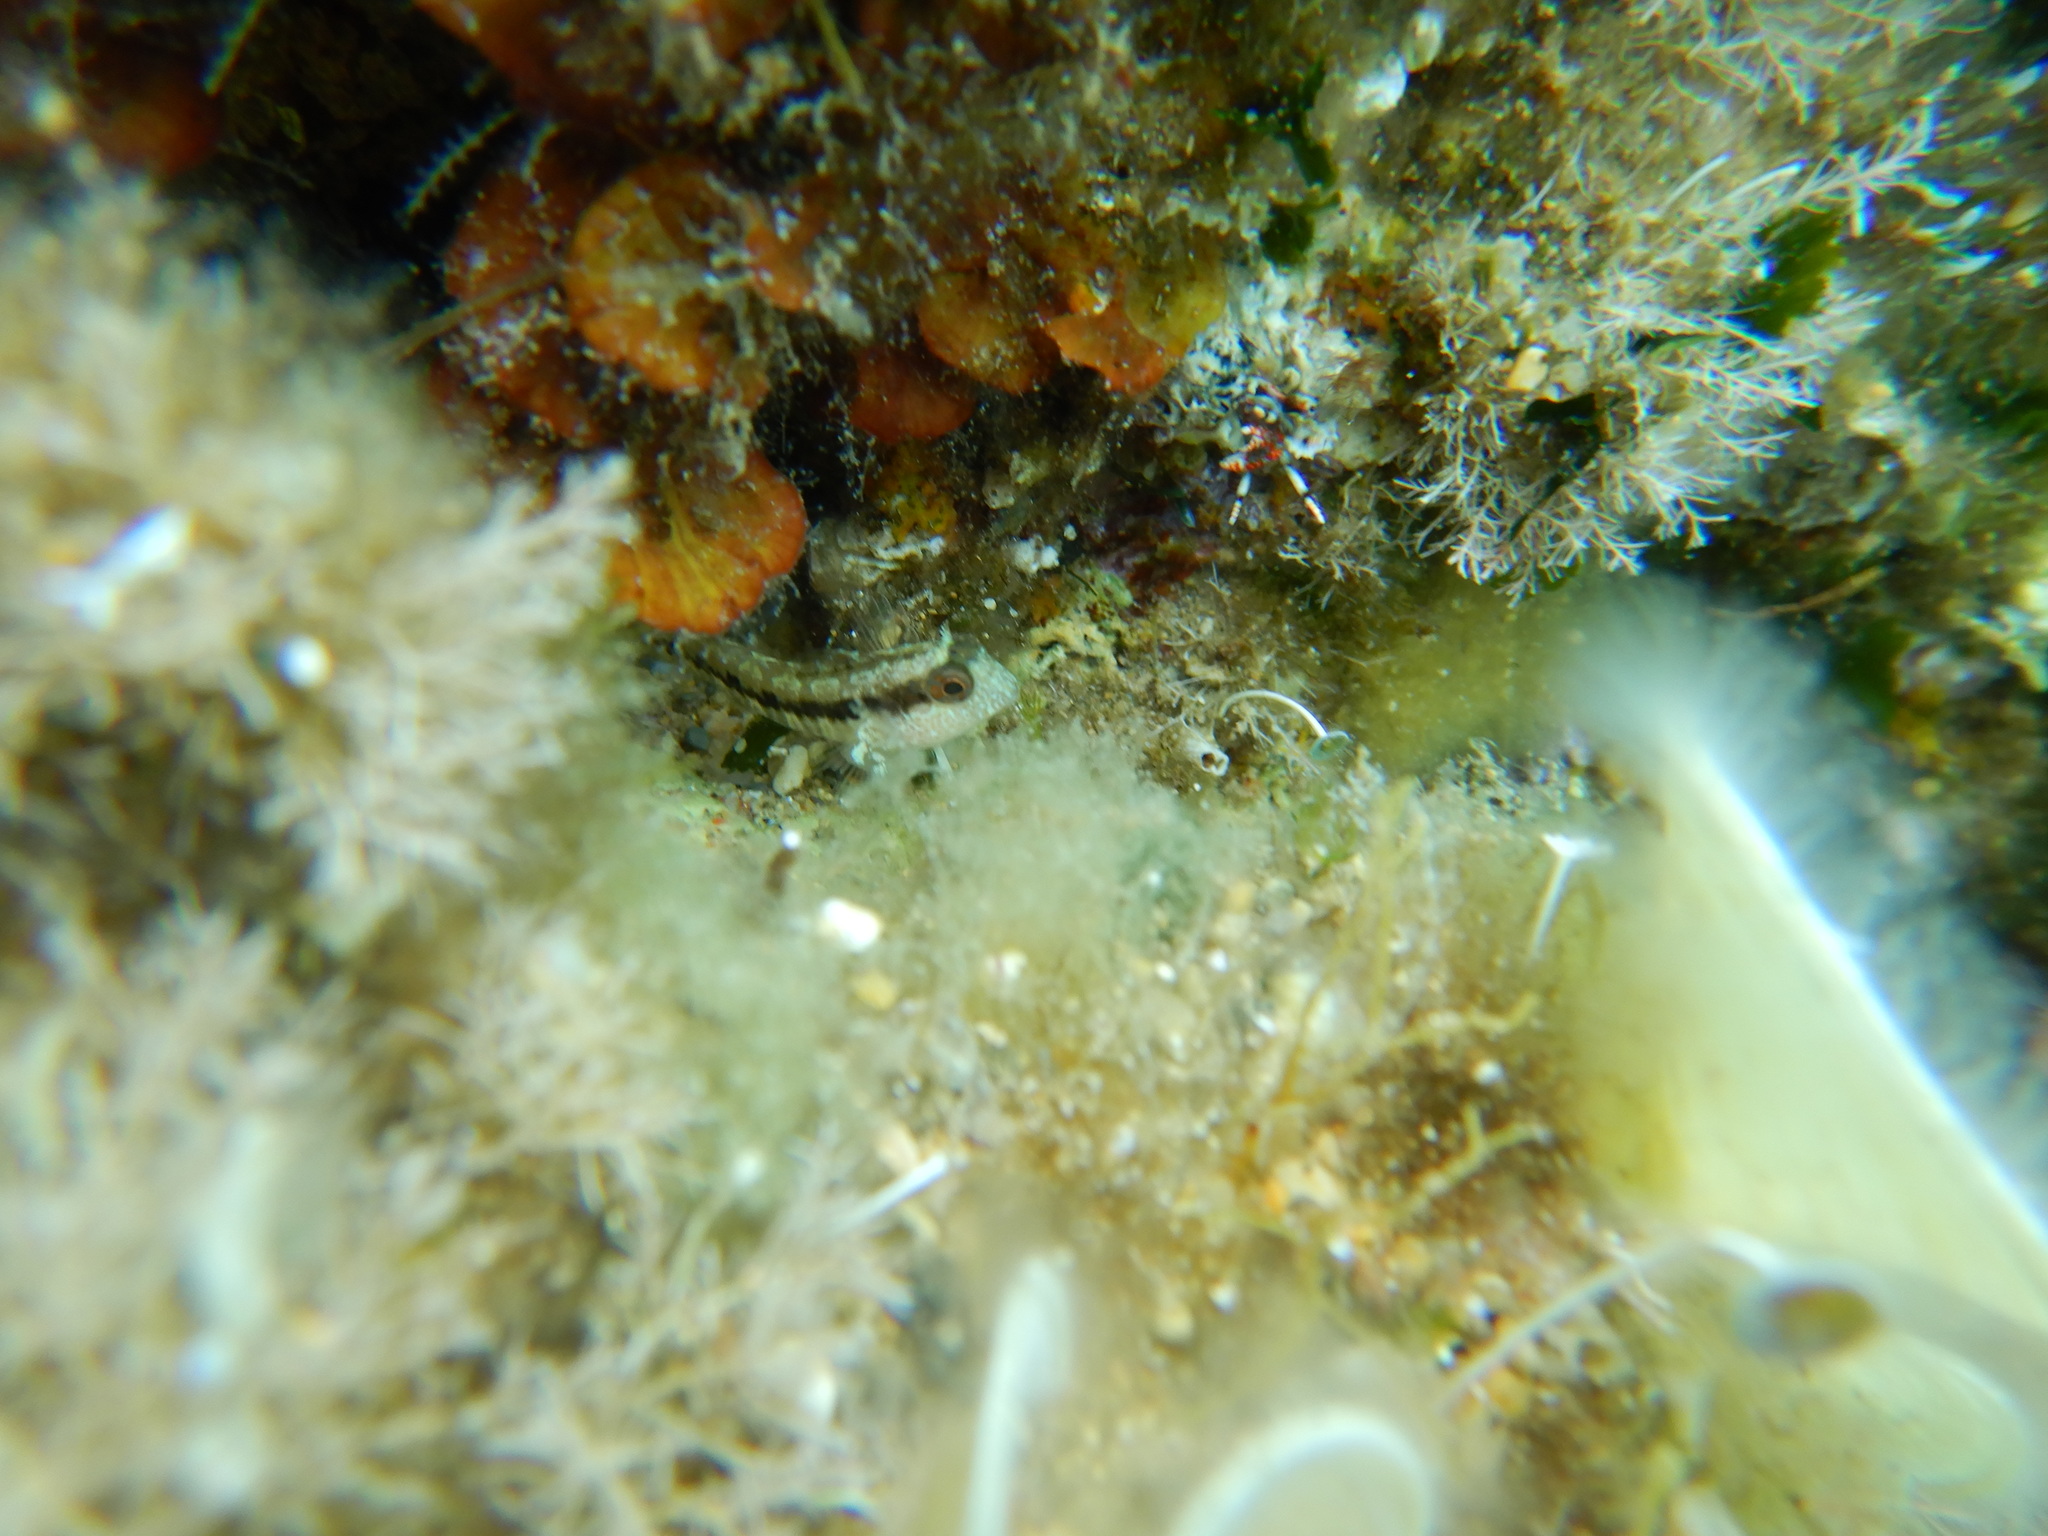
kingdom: Animalia
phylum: Chordata
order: Perciformes
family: Blenniidae
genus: Parablennius
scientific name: Parablennius pilicornis
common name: Ringneck blenny
